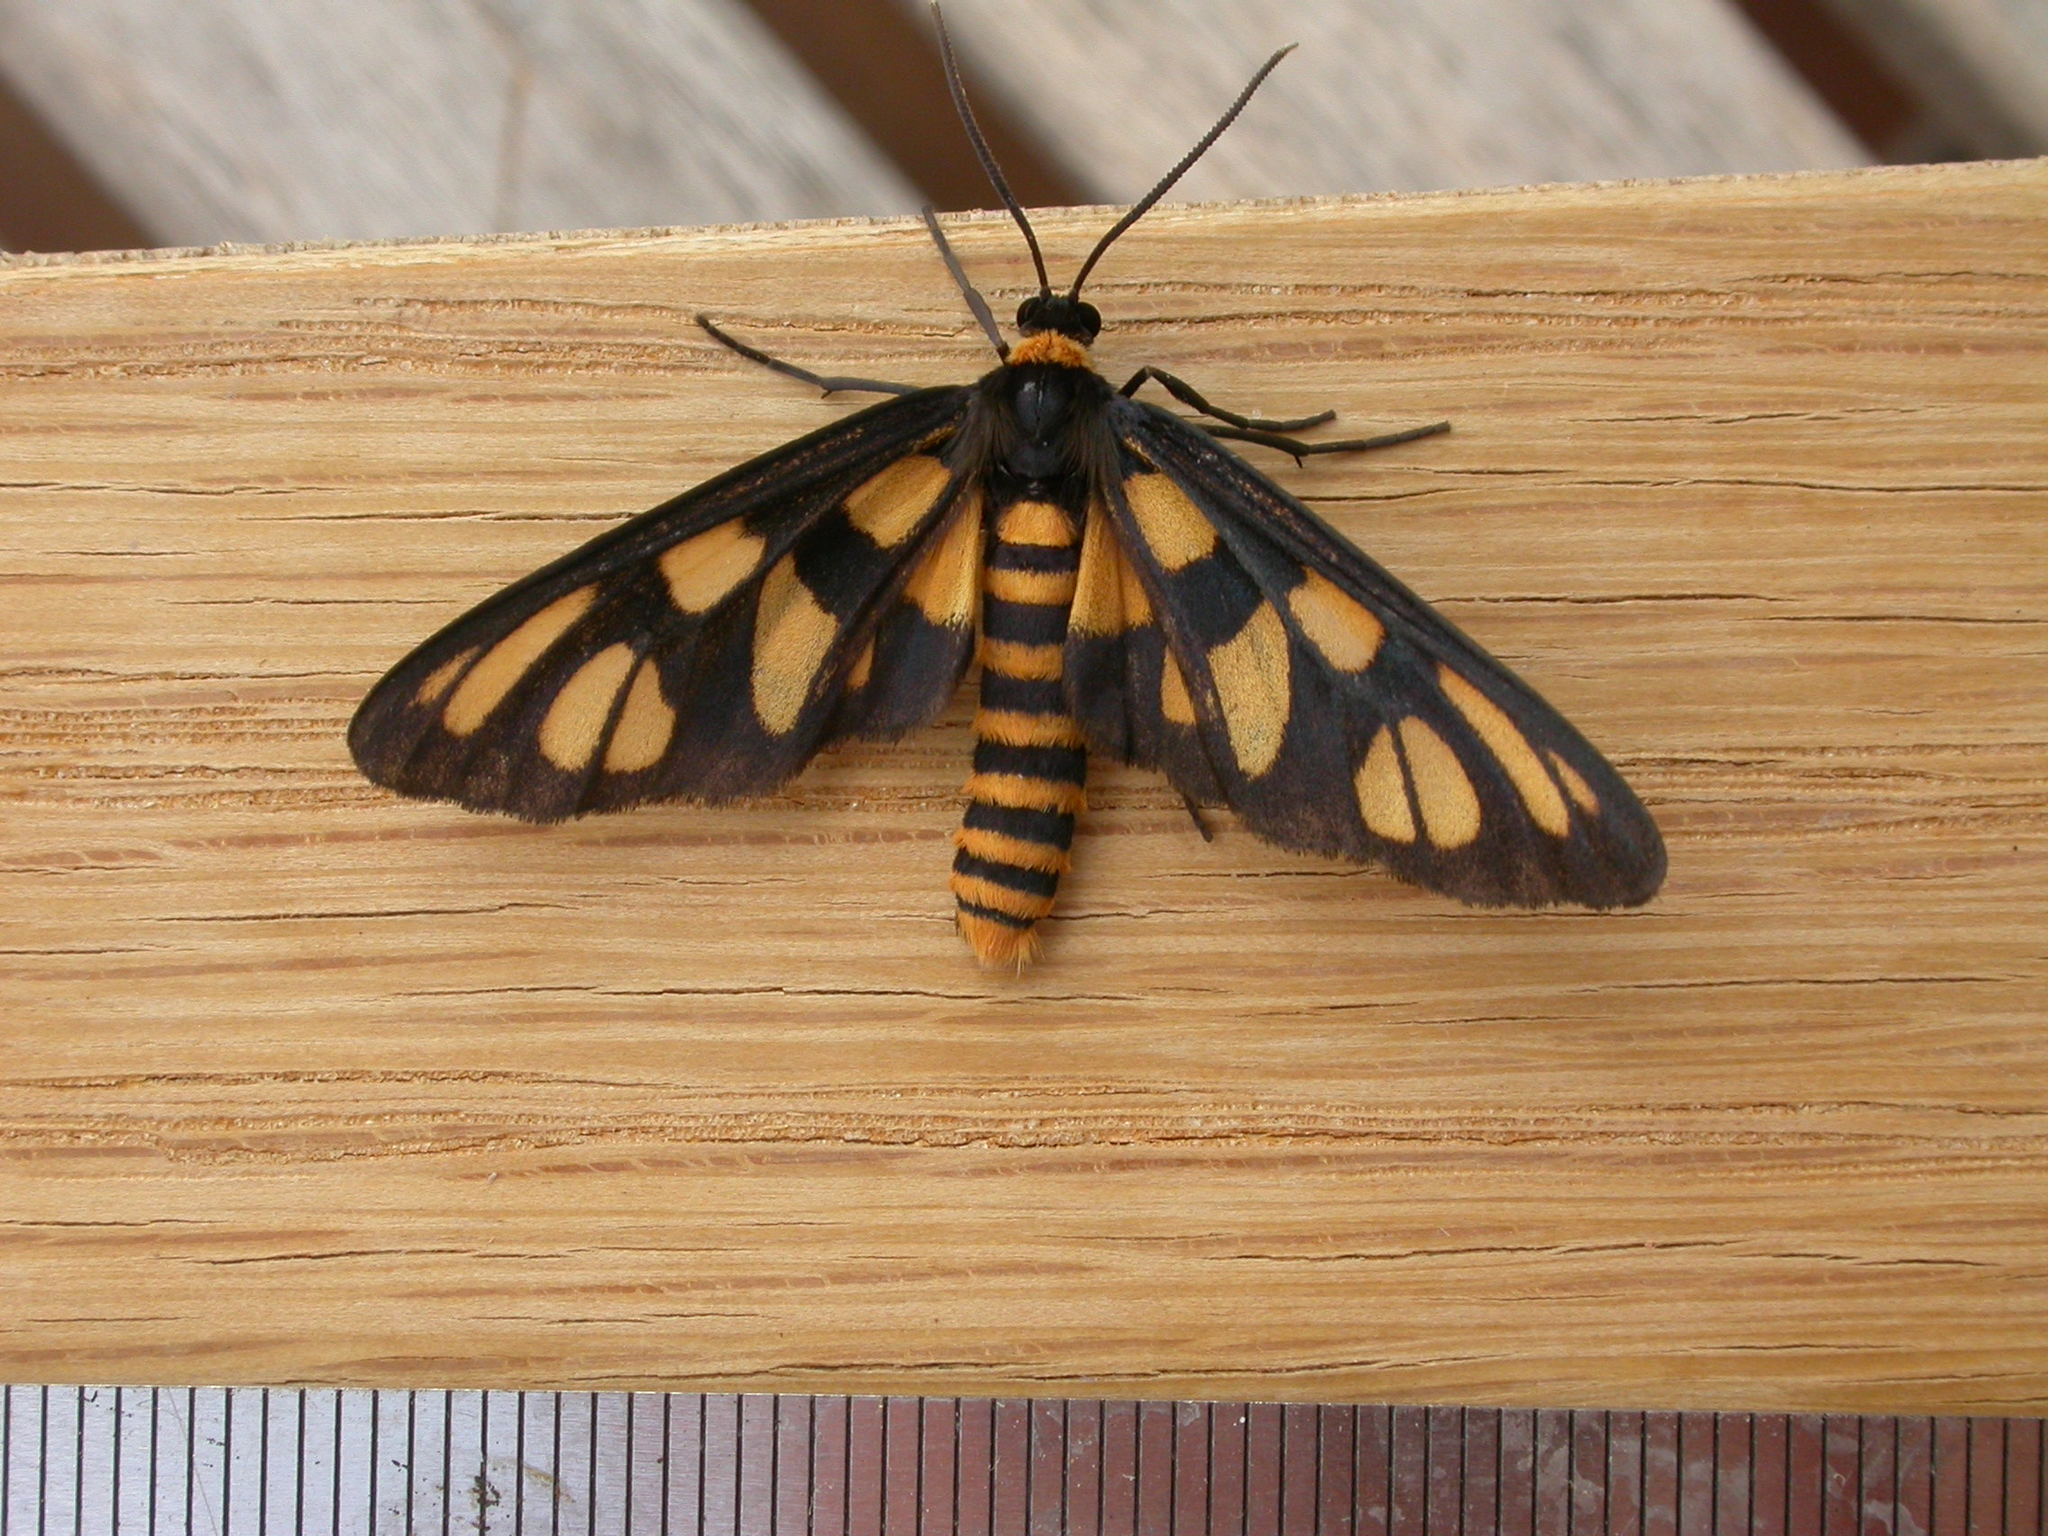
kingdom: Animalia
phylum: Arthropoda
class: Insecta
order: Lepidoptera
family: Erebidae
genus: Amata
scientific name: Amata trigonophora
